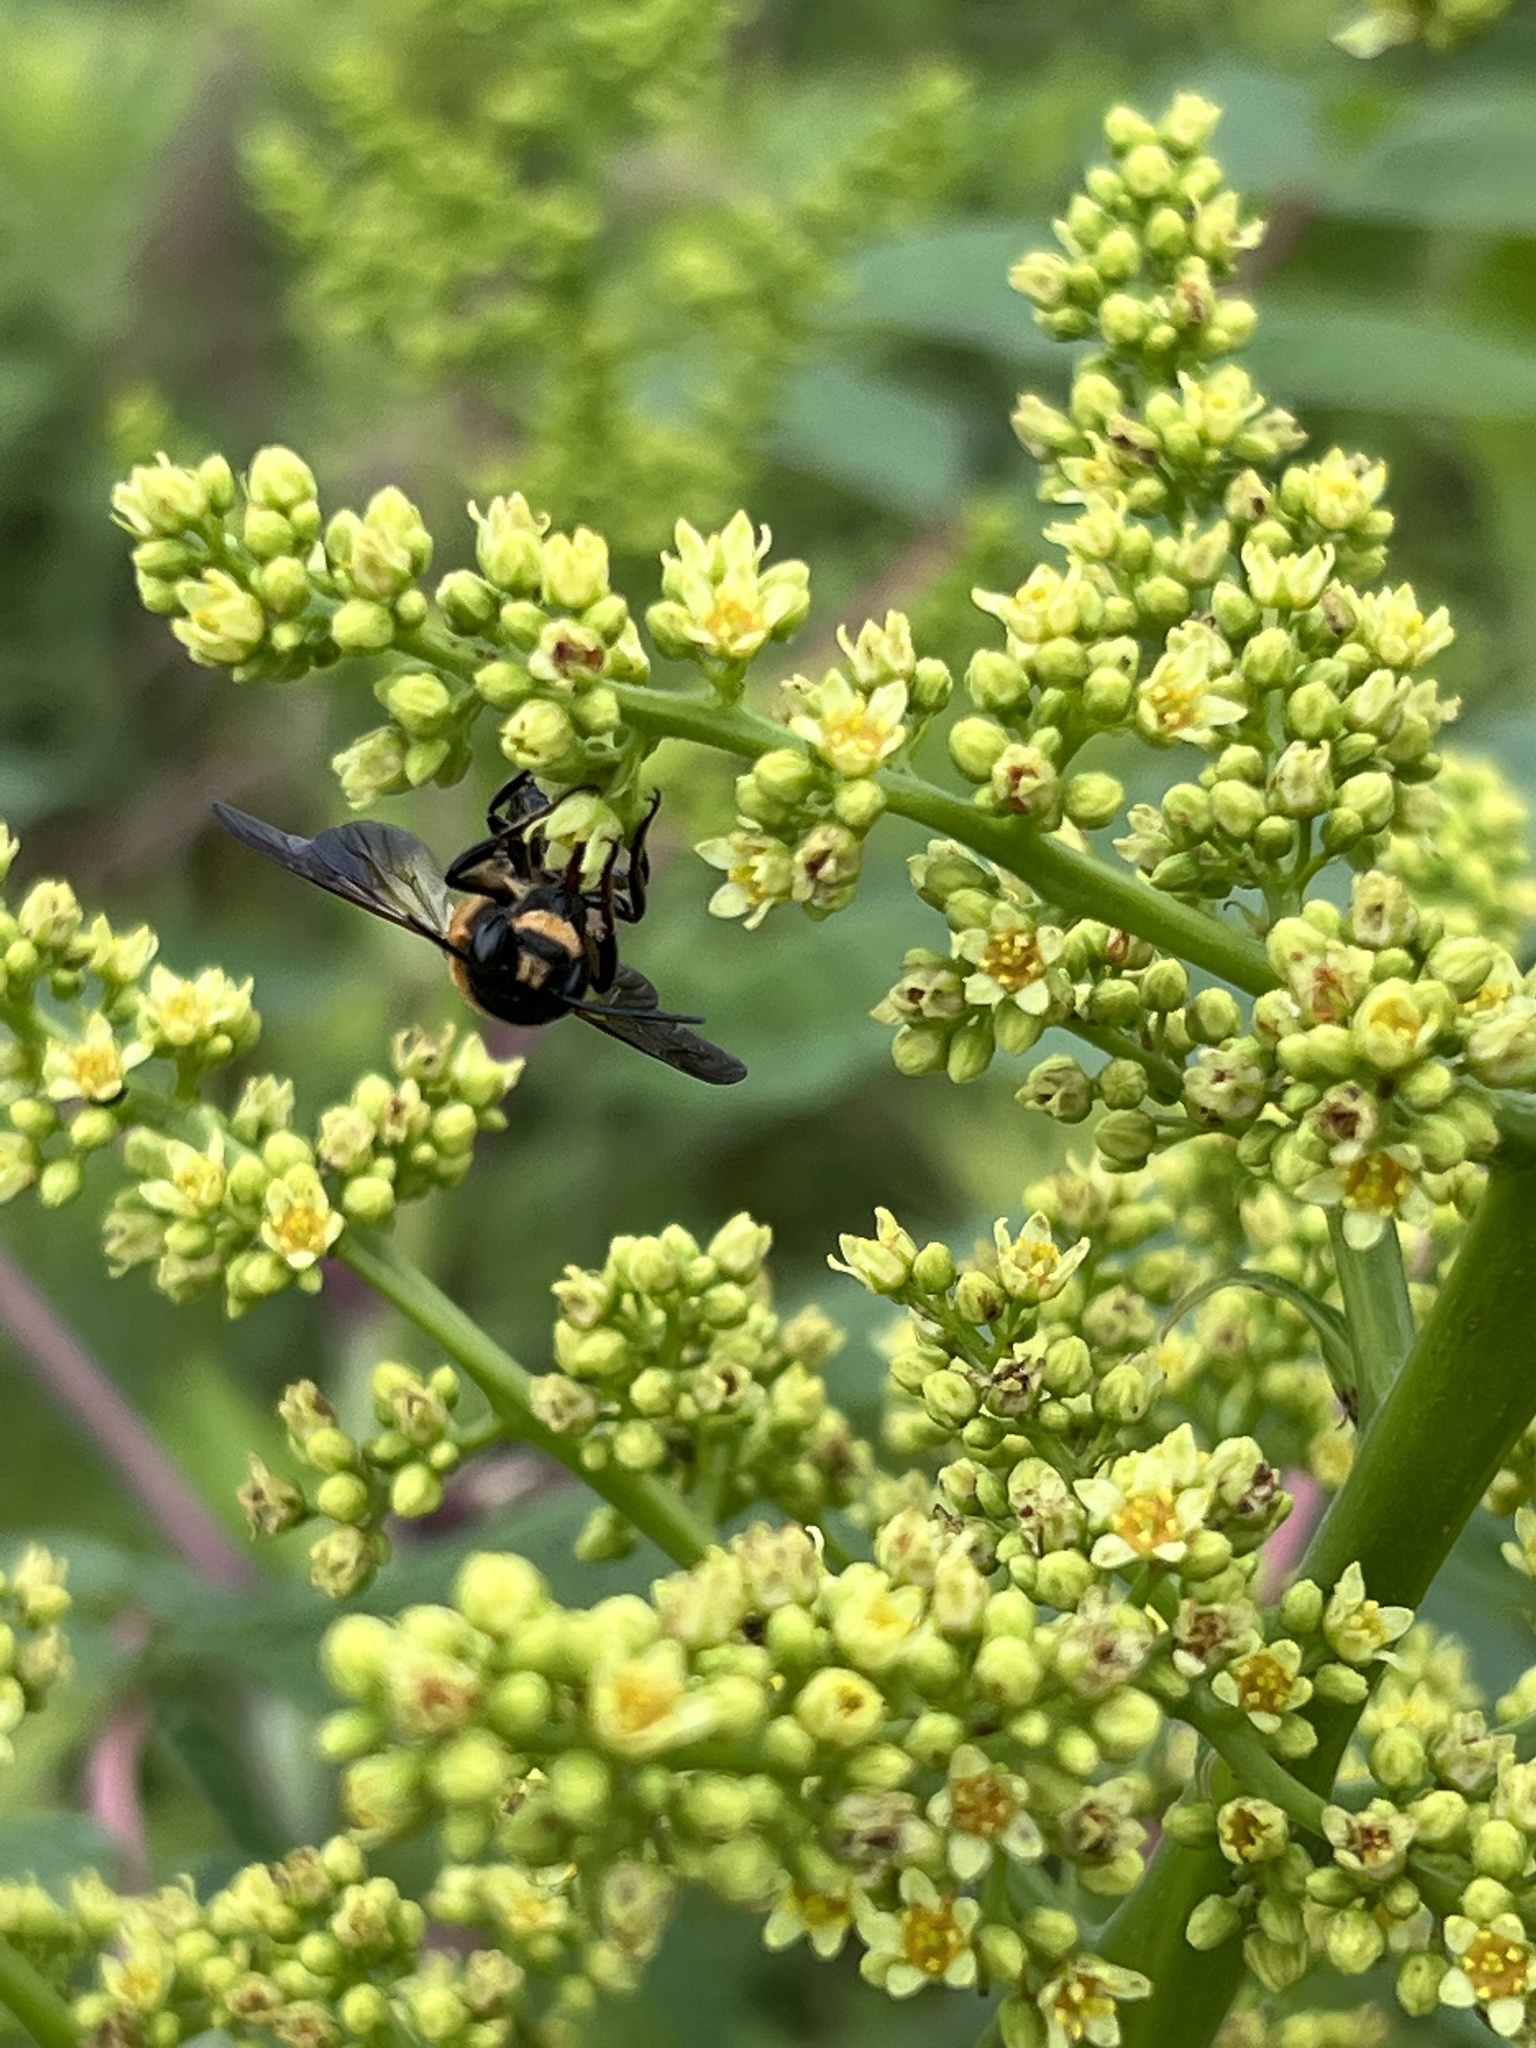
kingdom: Animalia
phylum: Arthropoda
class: Insecta
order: Hymenoptera
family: Megachilidae
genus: Megachile
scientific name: Megachile sculpturalis
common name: Sculptured resin bee
